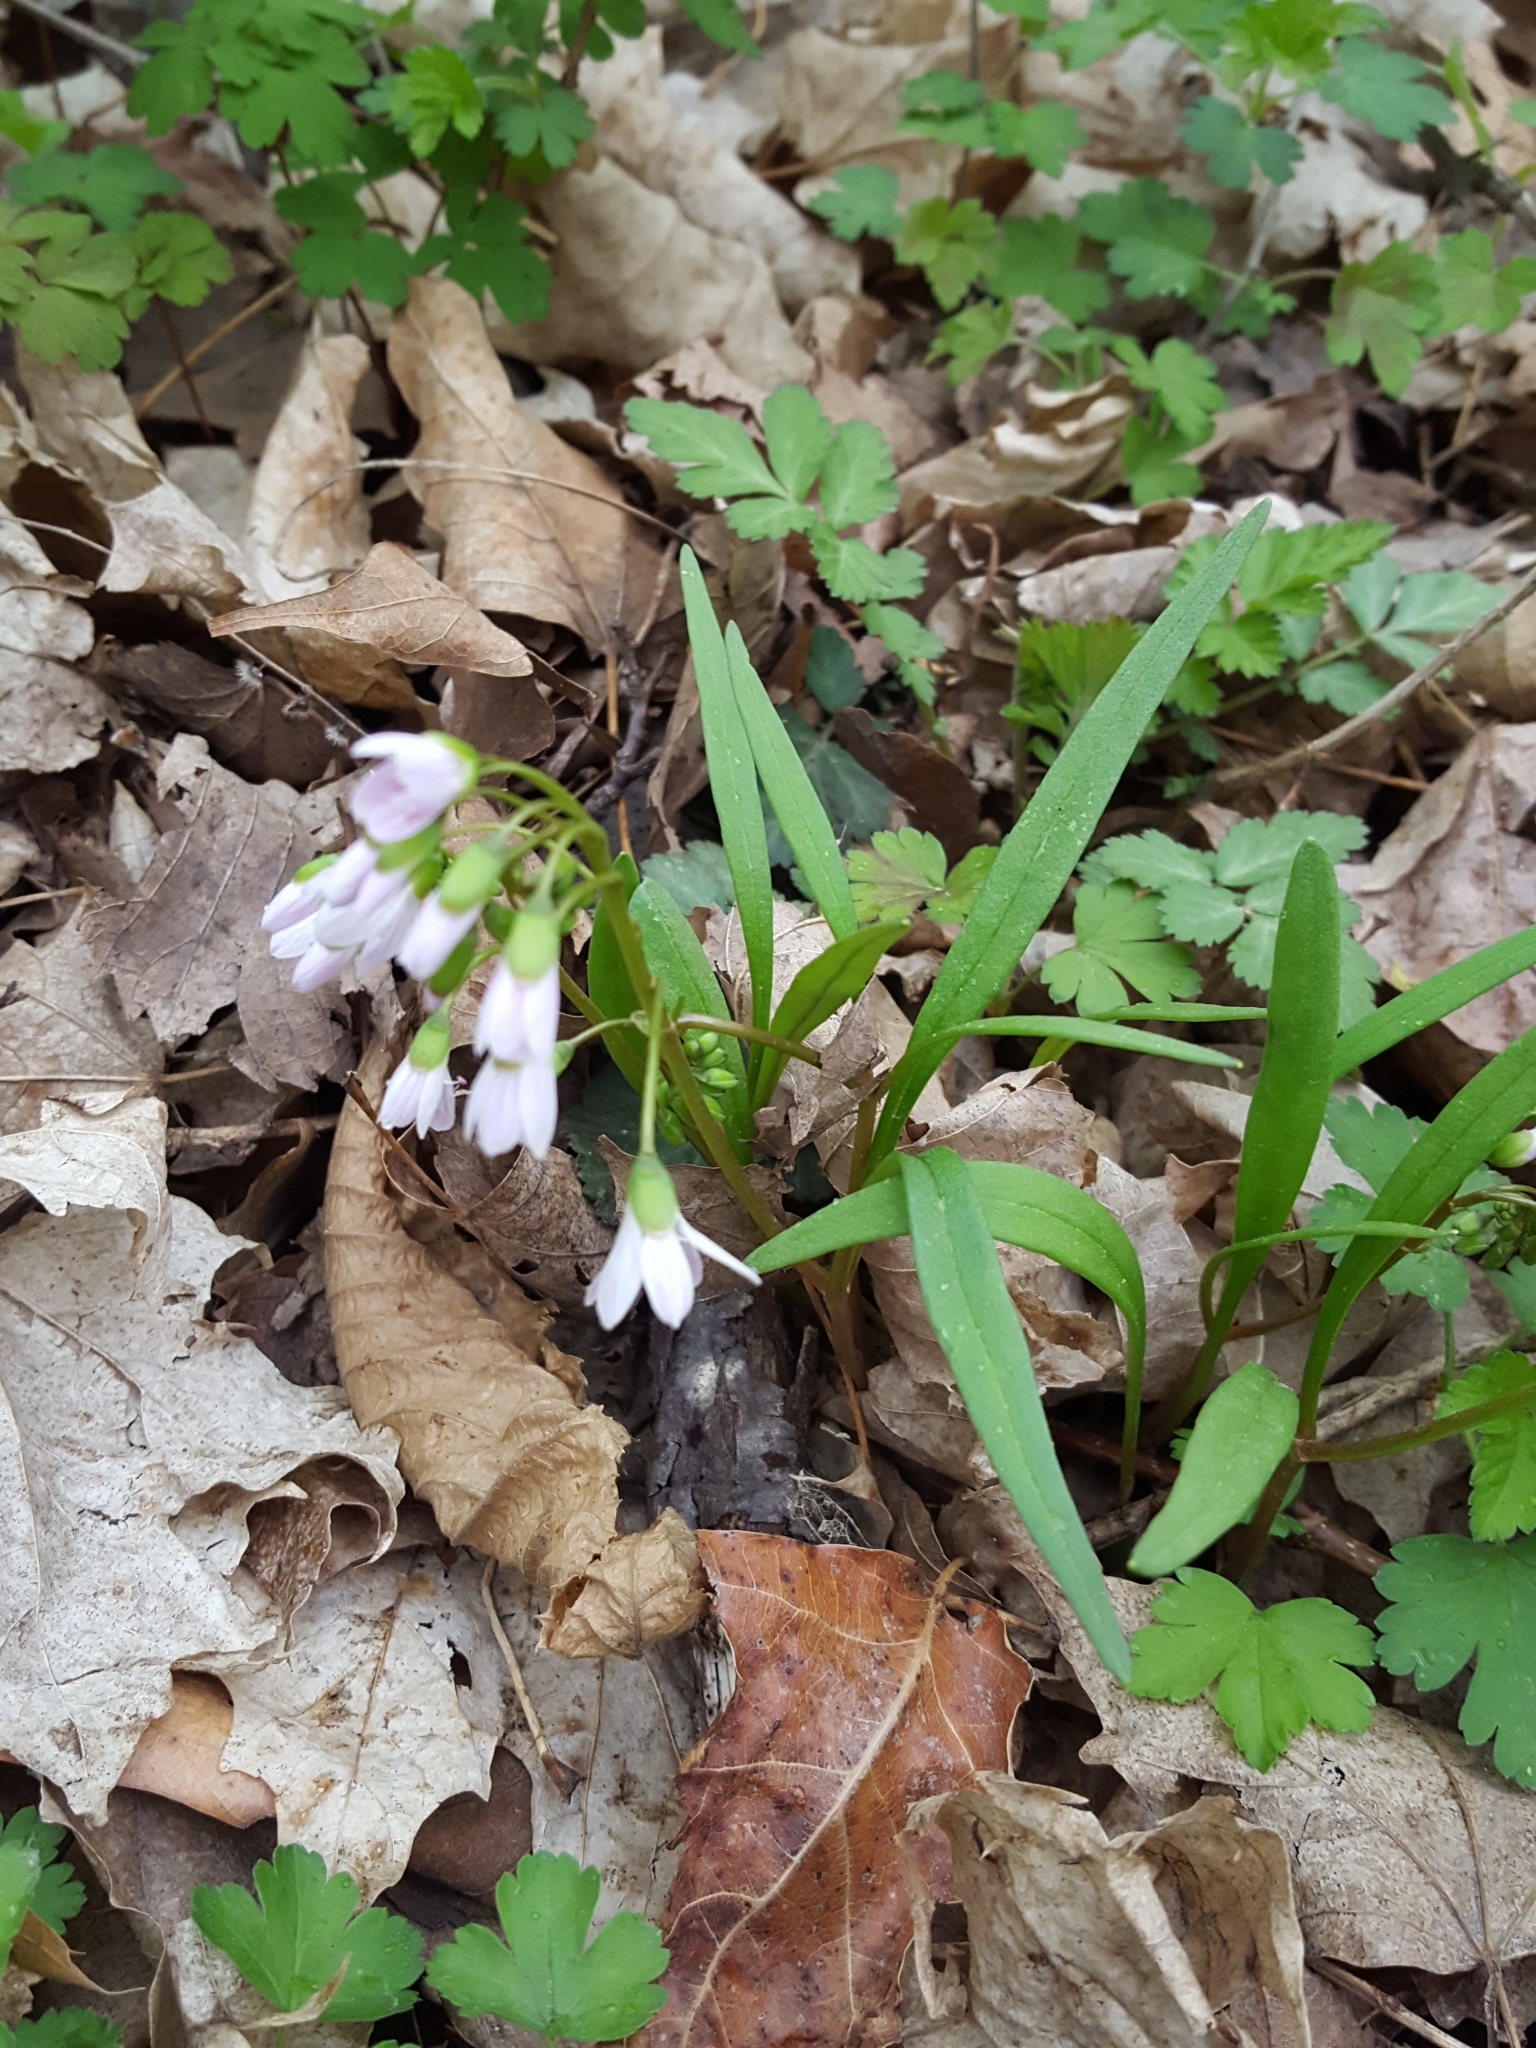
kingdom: Plantae
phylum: Tracheophyta
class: Magnoliopsida
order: Caryophyllales
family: Montiaceae
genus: Claytonia
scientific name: Claytonia virginica
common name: Virginia springbeauty
